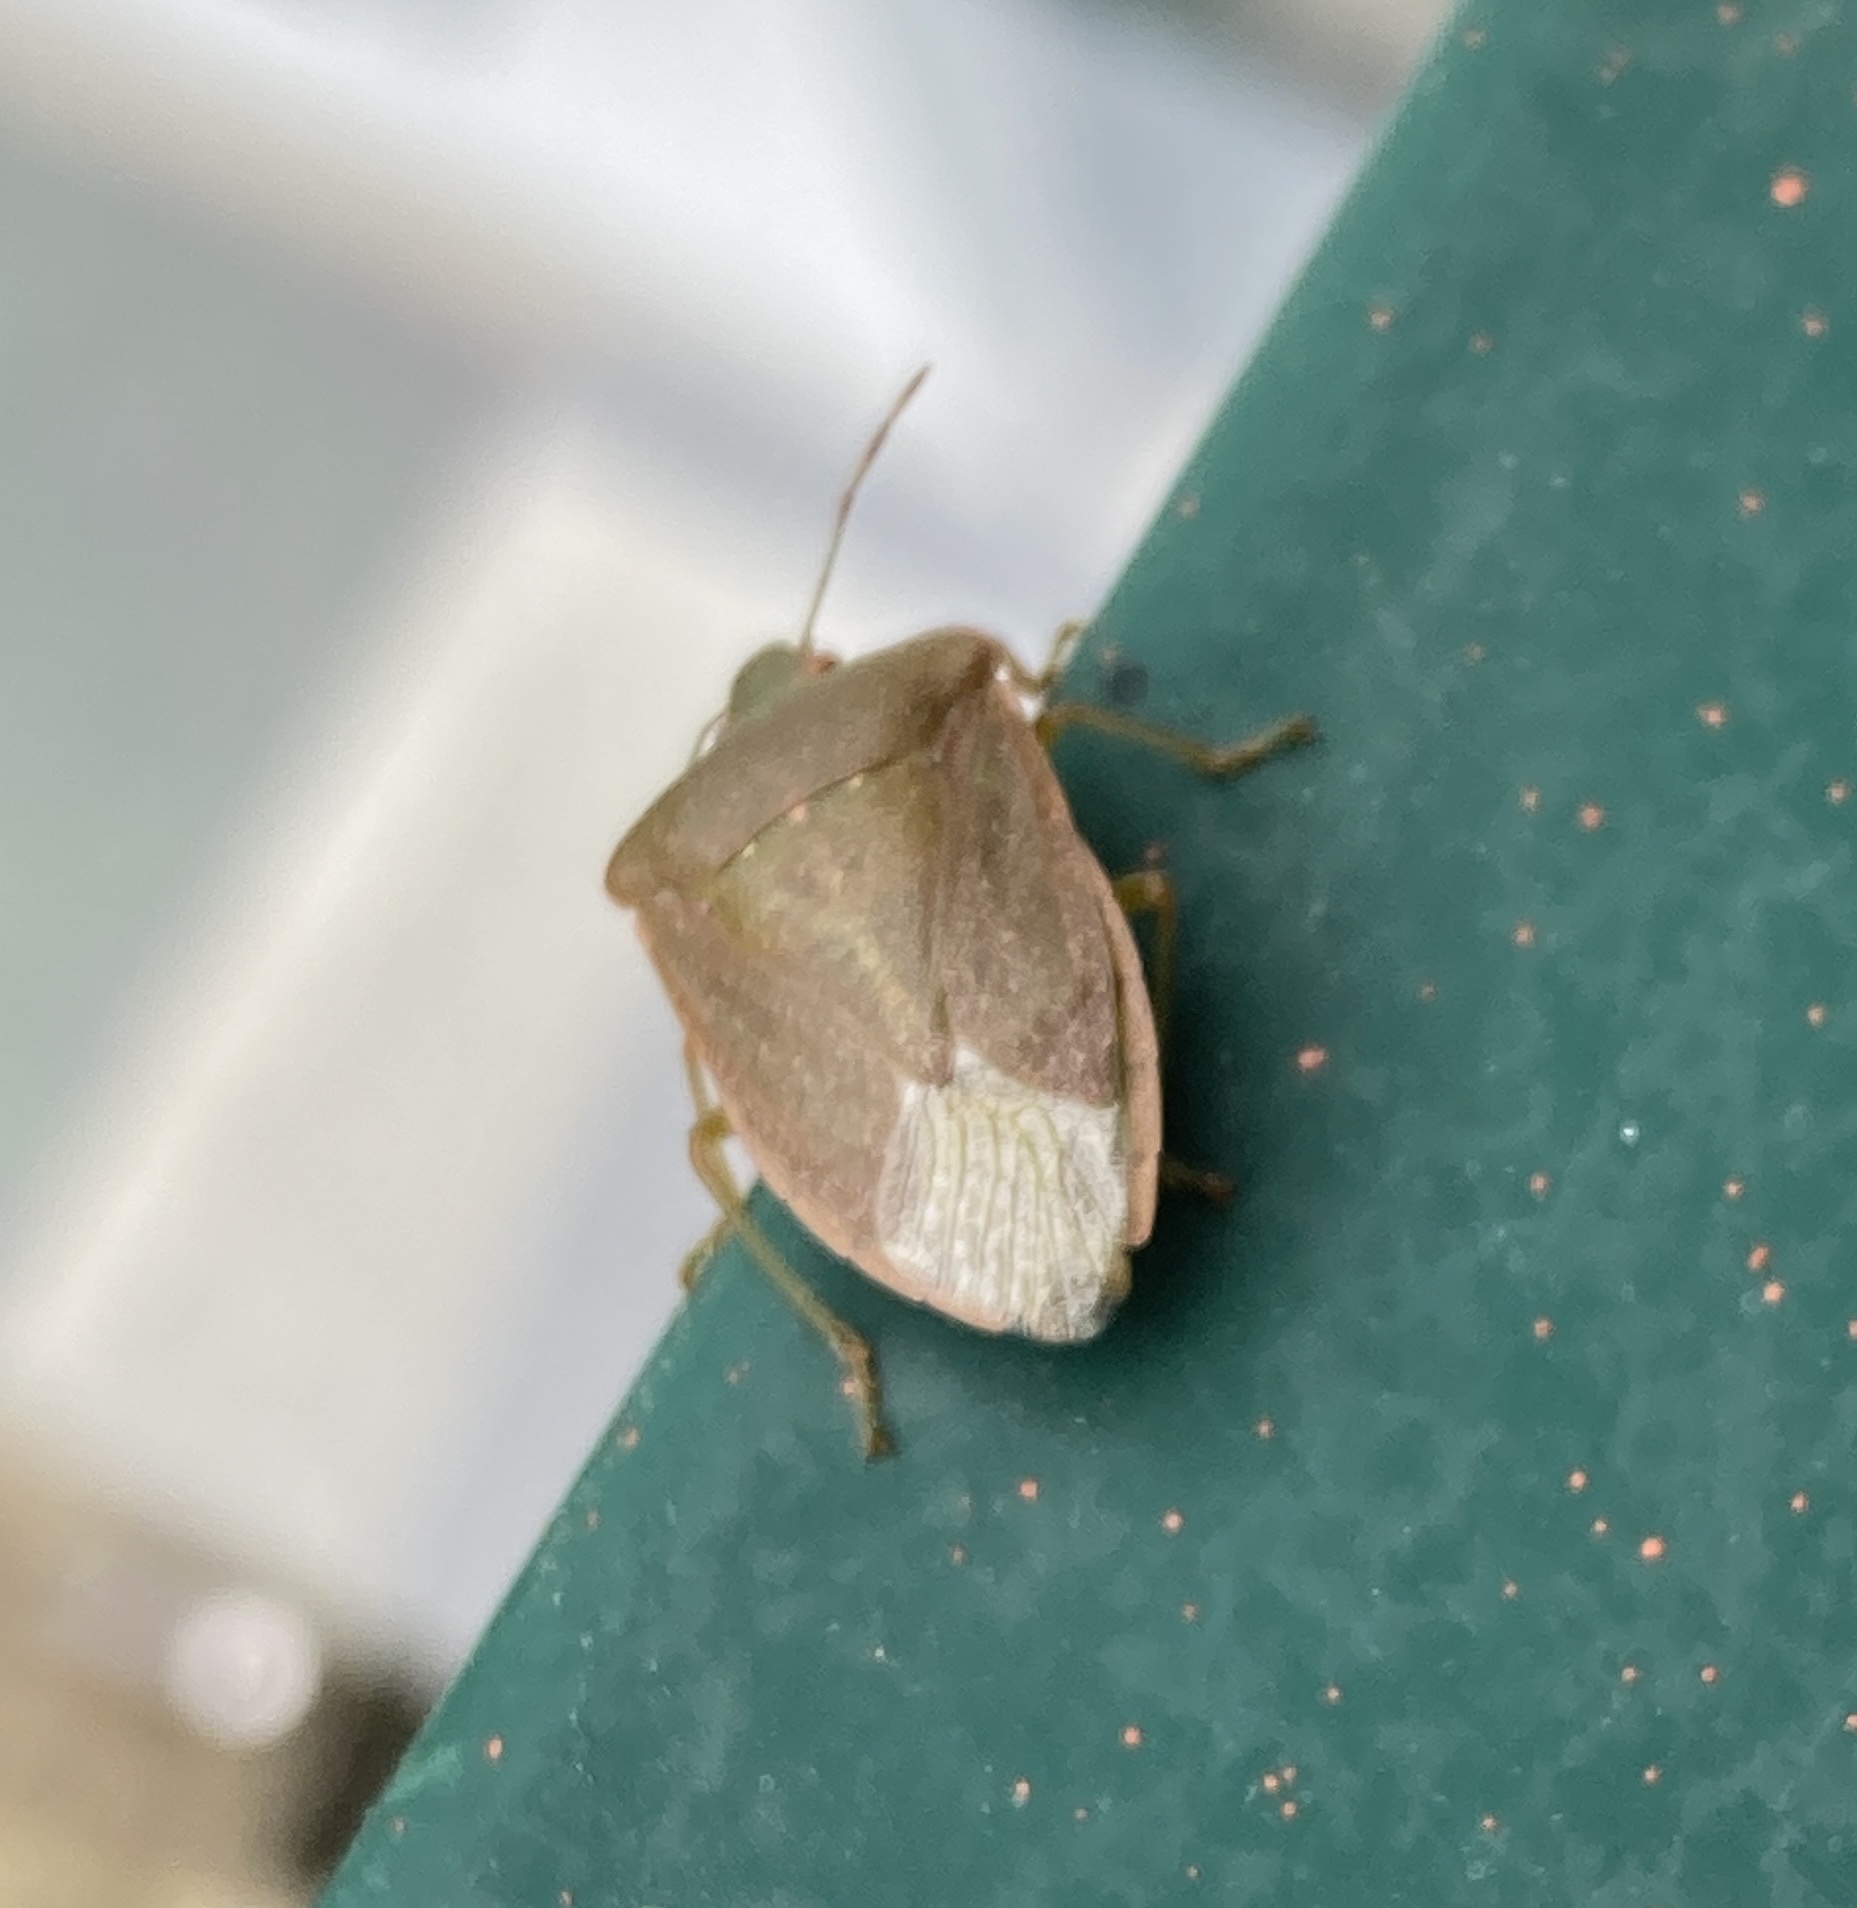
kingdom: Animalia
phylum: Arthropoda
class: Insecta
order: Hemiptera
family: Pentatomidae
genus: Nezara
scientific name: Nezara viridula
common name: Southern green stink bug
